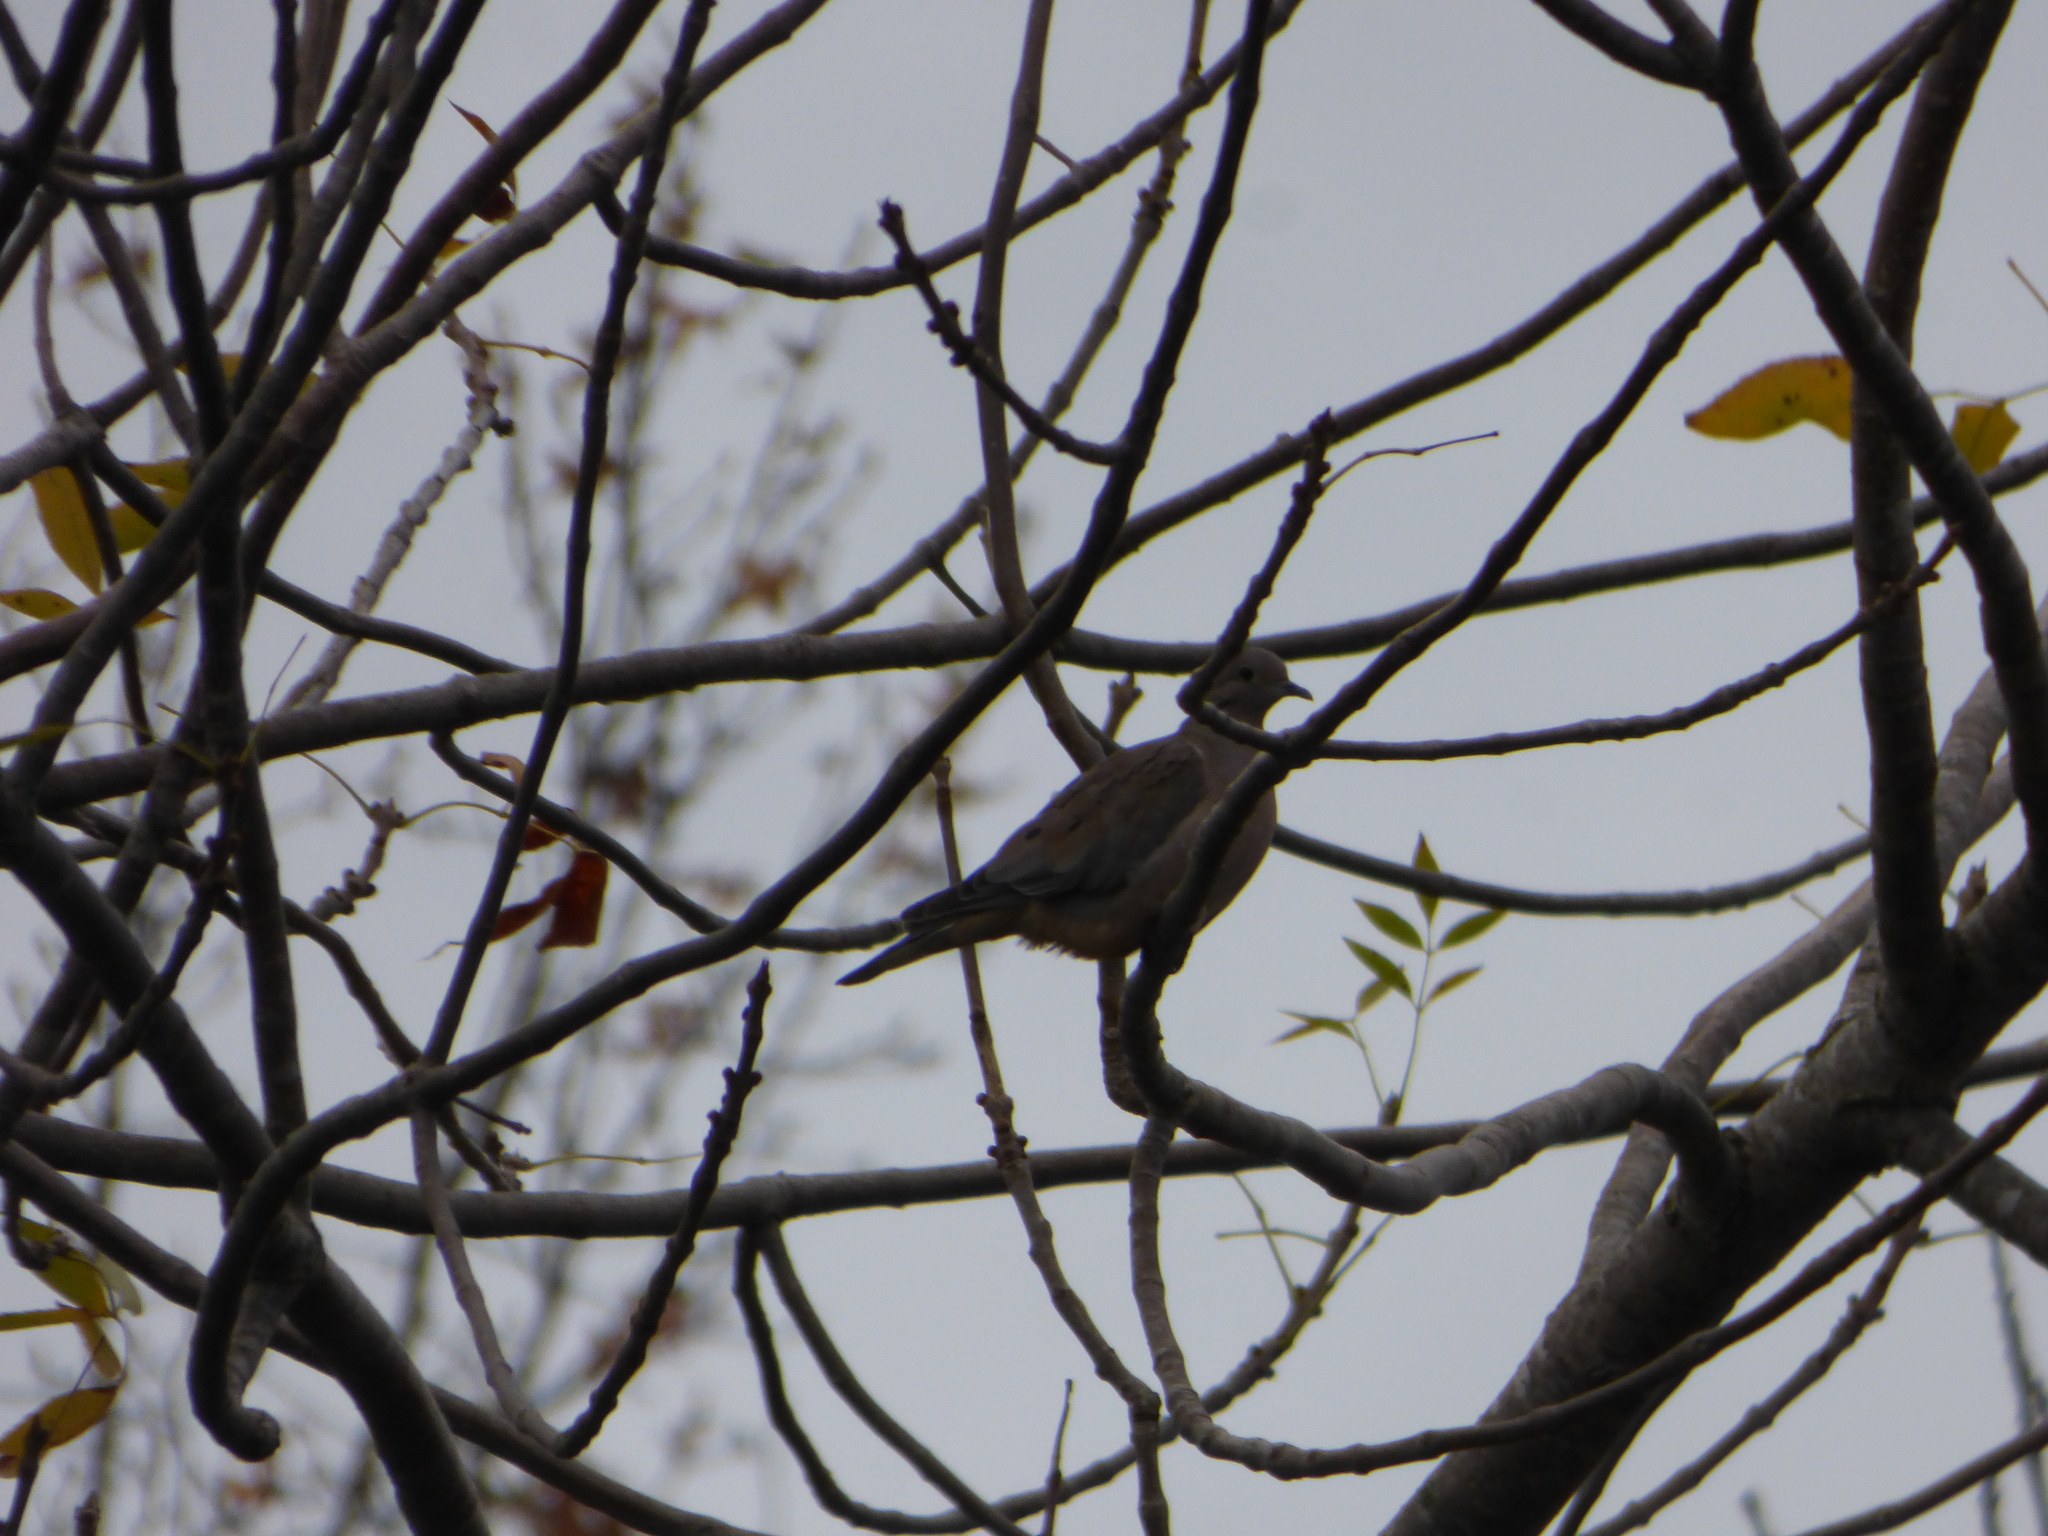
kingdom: Animalia
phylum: Chordata
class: Aves
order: Columbiformes
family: Columbidae
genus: Zenaida
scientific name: Zenaida auriculata
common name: Eared dove
